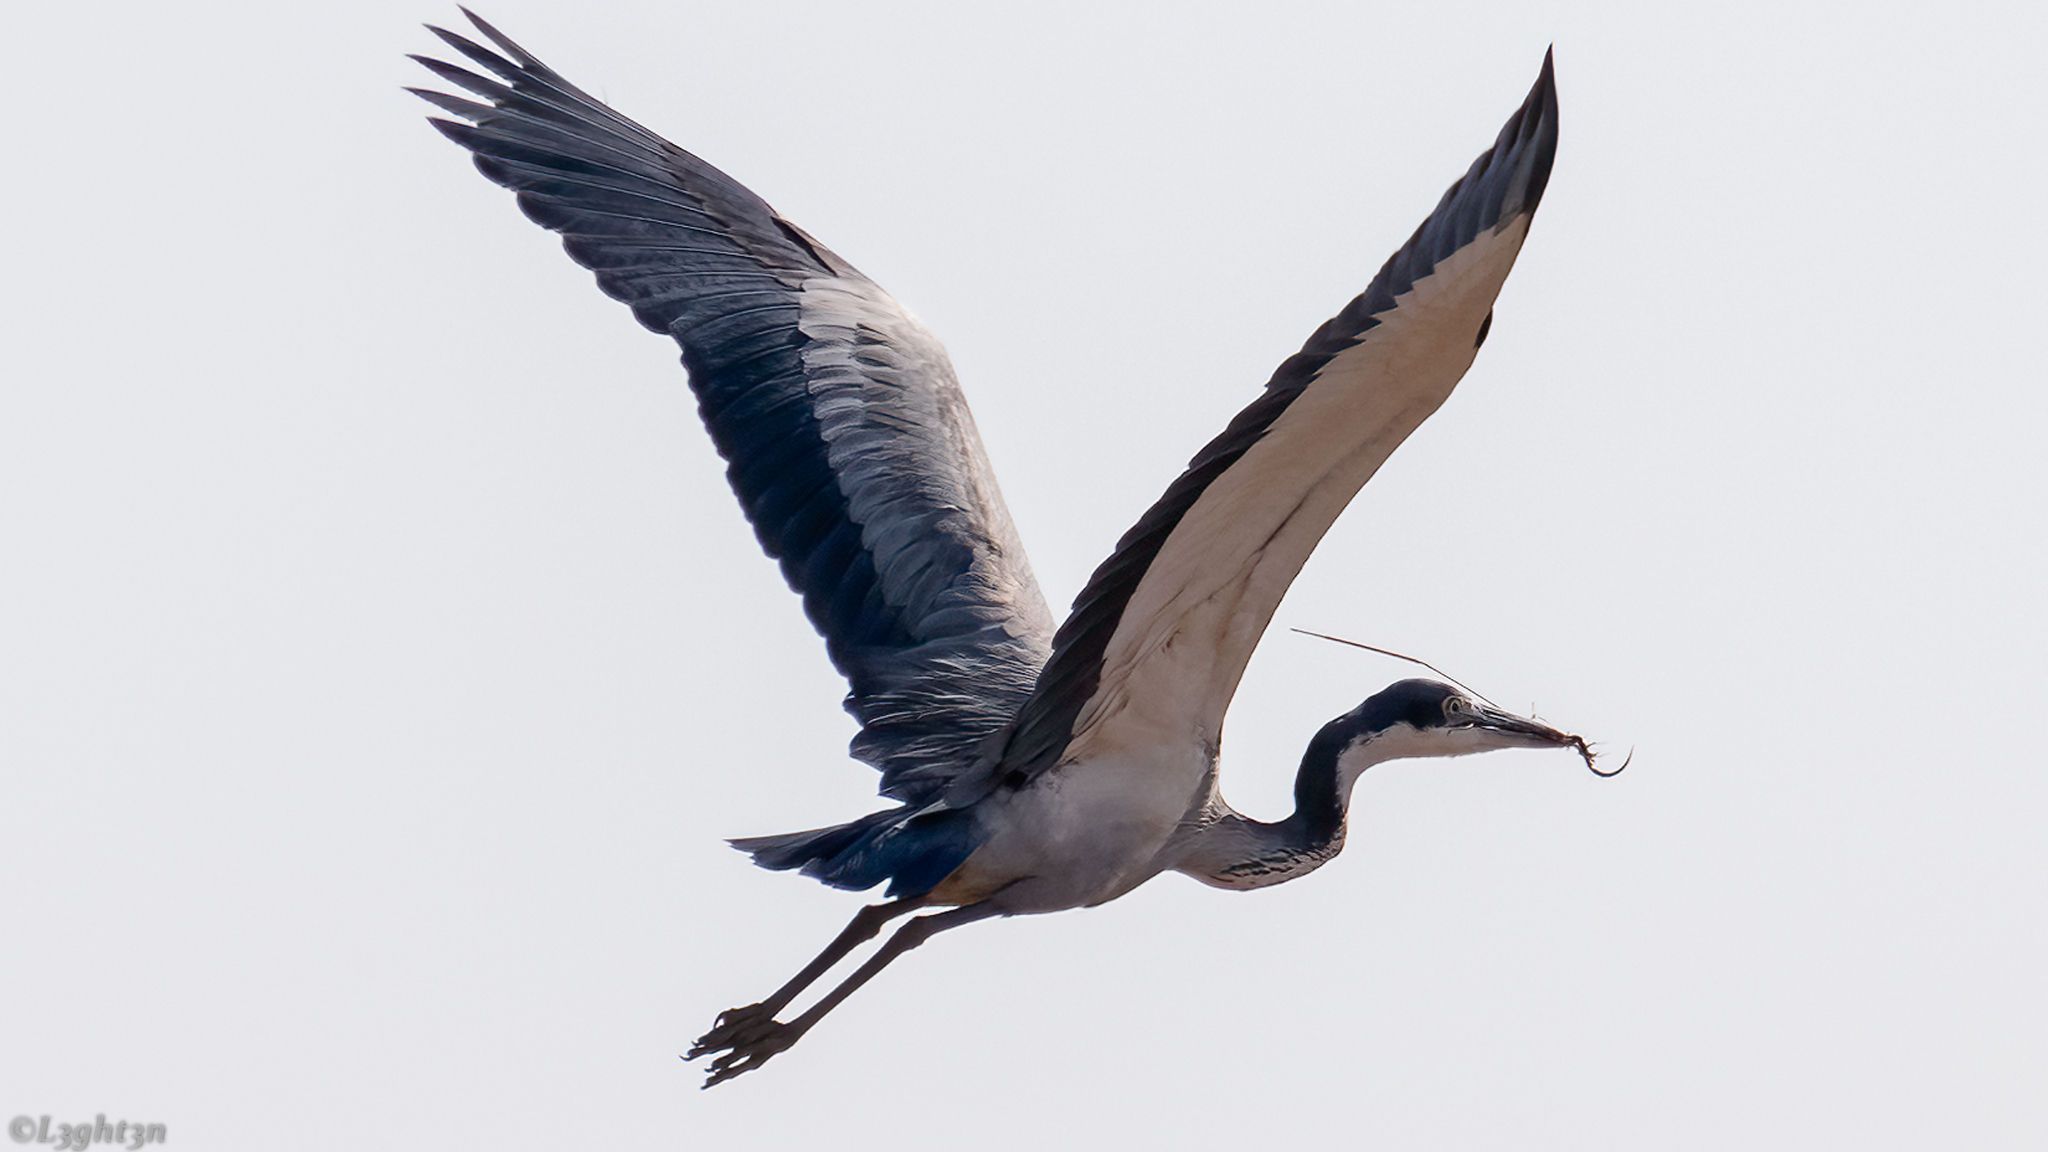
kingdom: Animalia
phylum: Chordata
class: Aves
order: Pelecaniformes
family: Ardeidae
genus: Ardea
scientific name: Ardea melanocephala
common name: Black-headed heron
